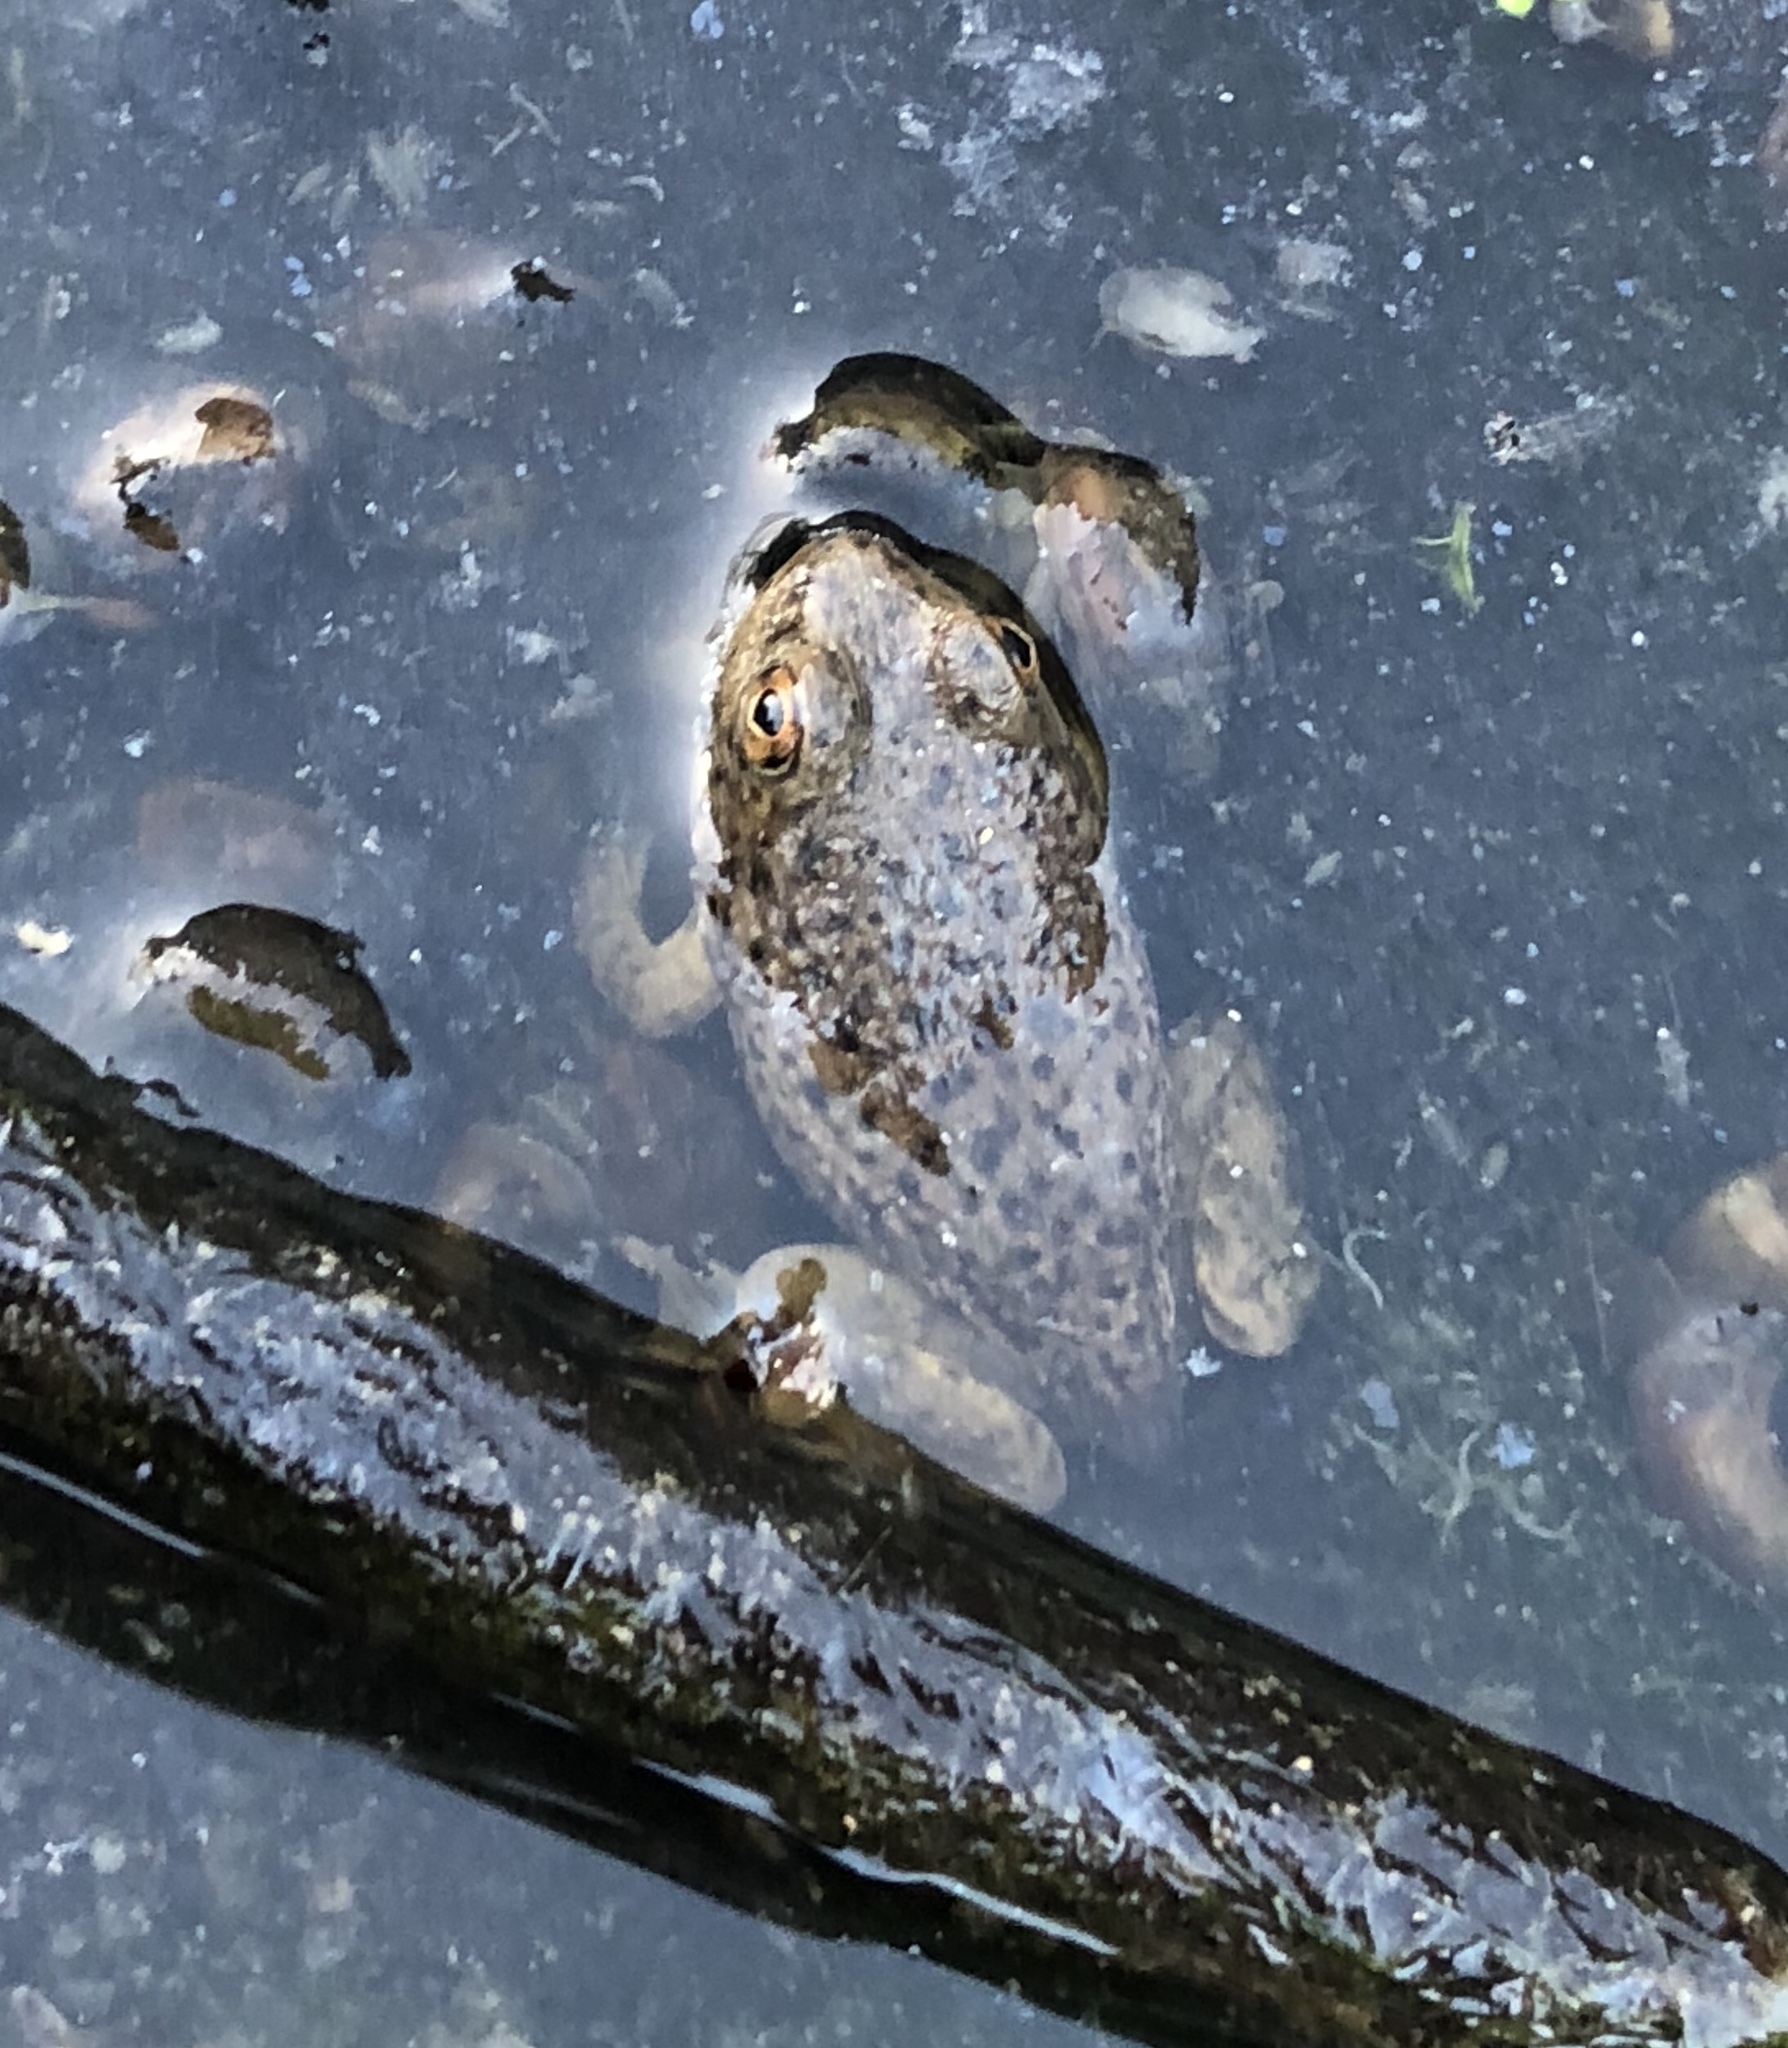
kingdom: Animalia
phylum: Chordata
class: Amphibia
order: Anura
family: Ranidae
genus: Lithobates
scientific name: Lithobates catesbeianus
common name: American bullfrog
